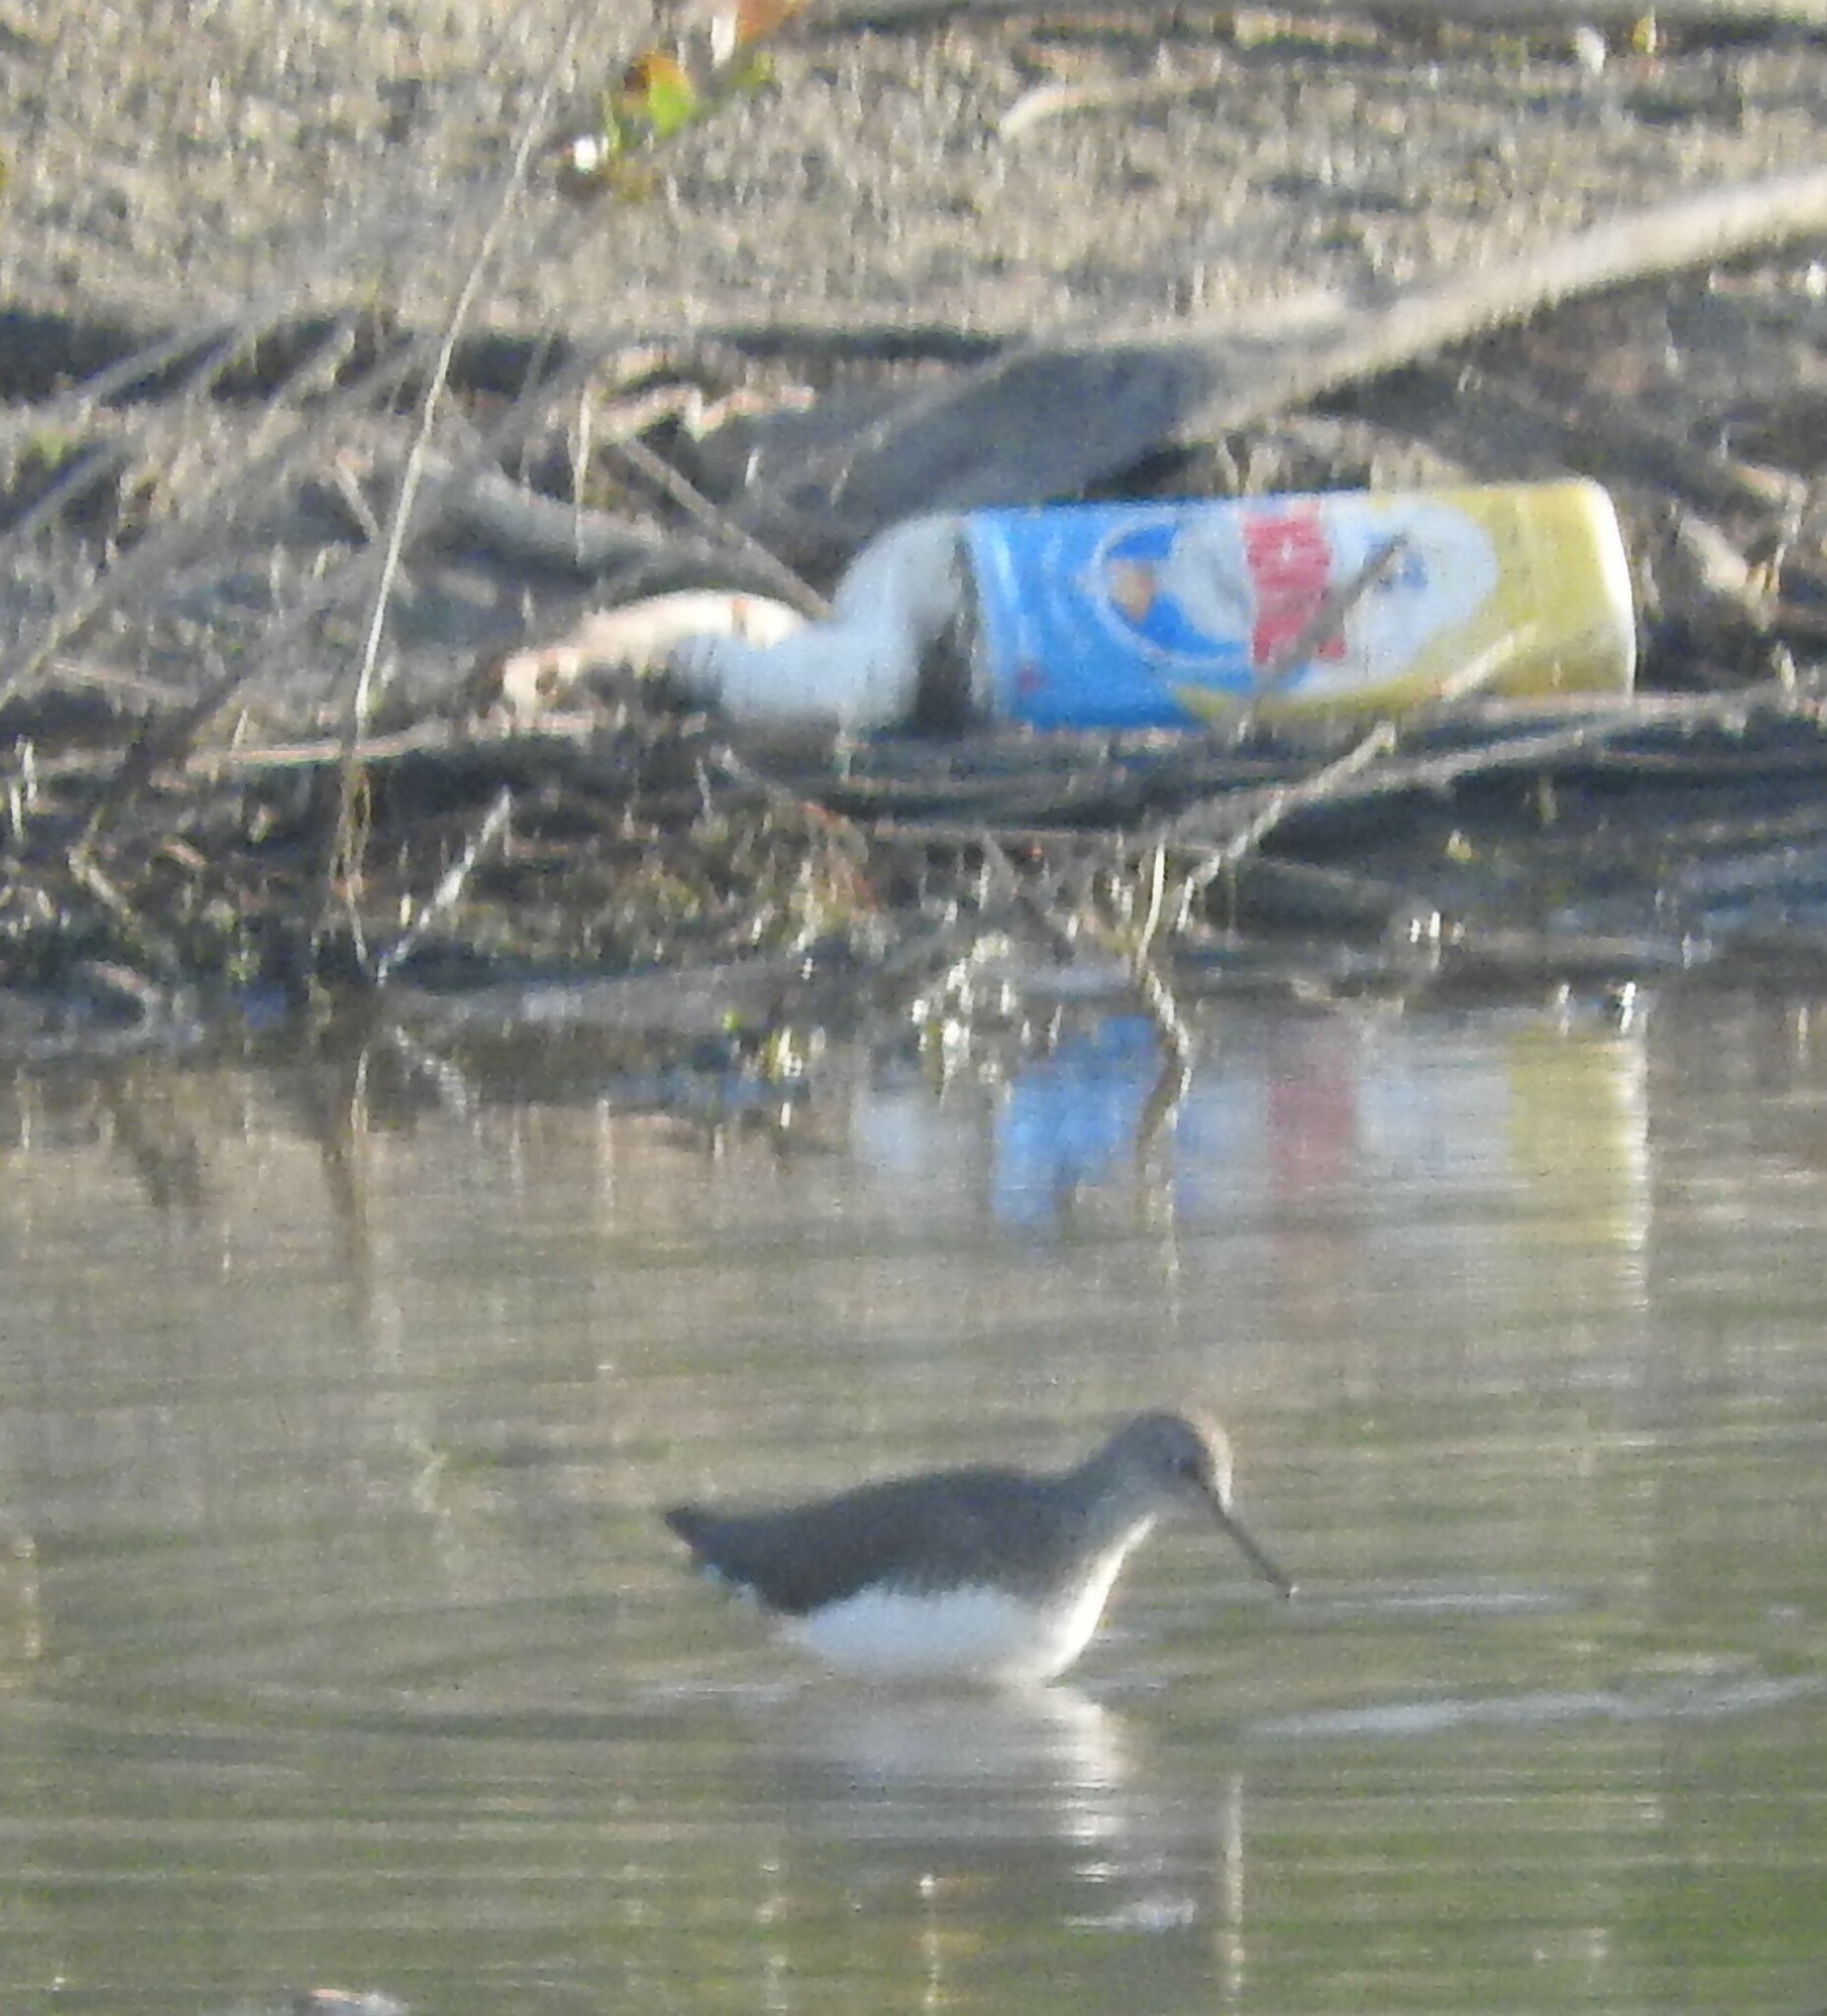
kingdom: Animalia
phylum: Chordata
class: Aves
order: Charadriiformes
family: Scolopacidae
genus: Actitis
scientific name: Actitis hypoleucos
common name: Common sandpiper
